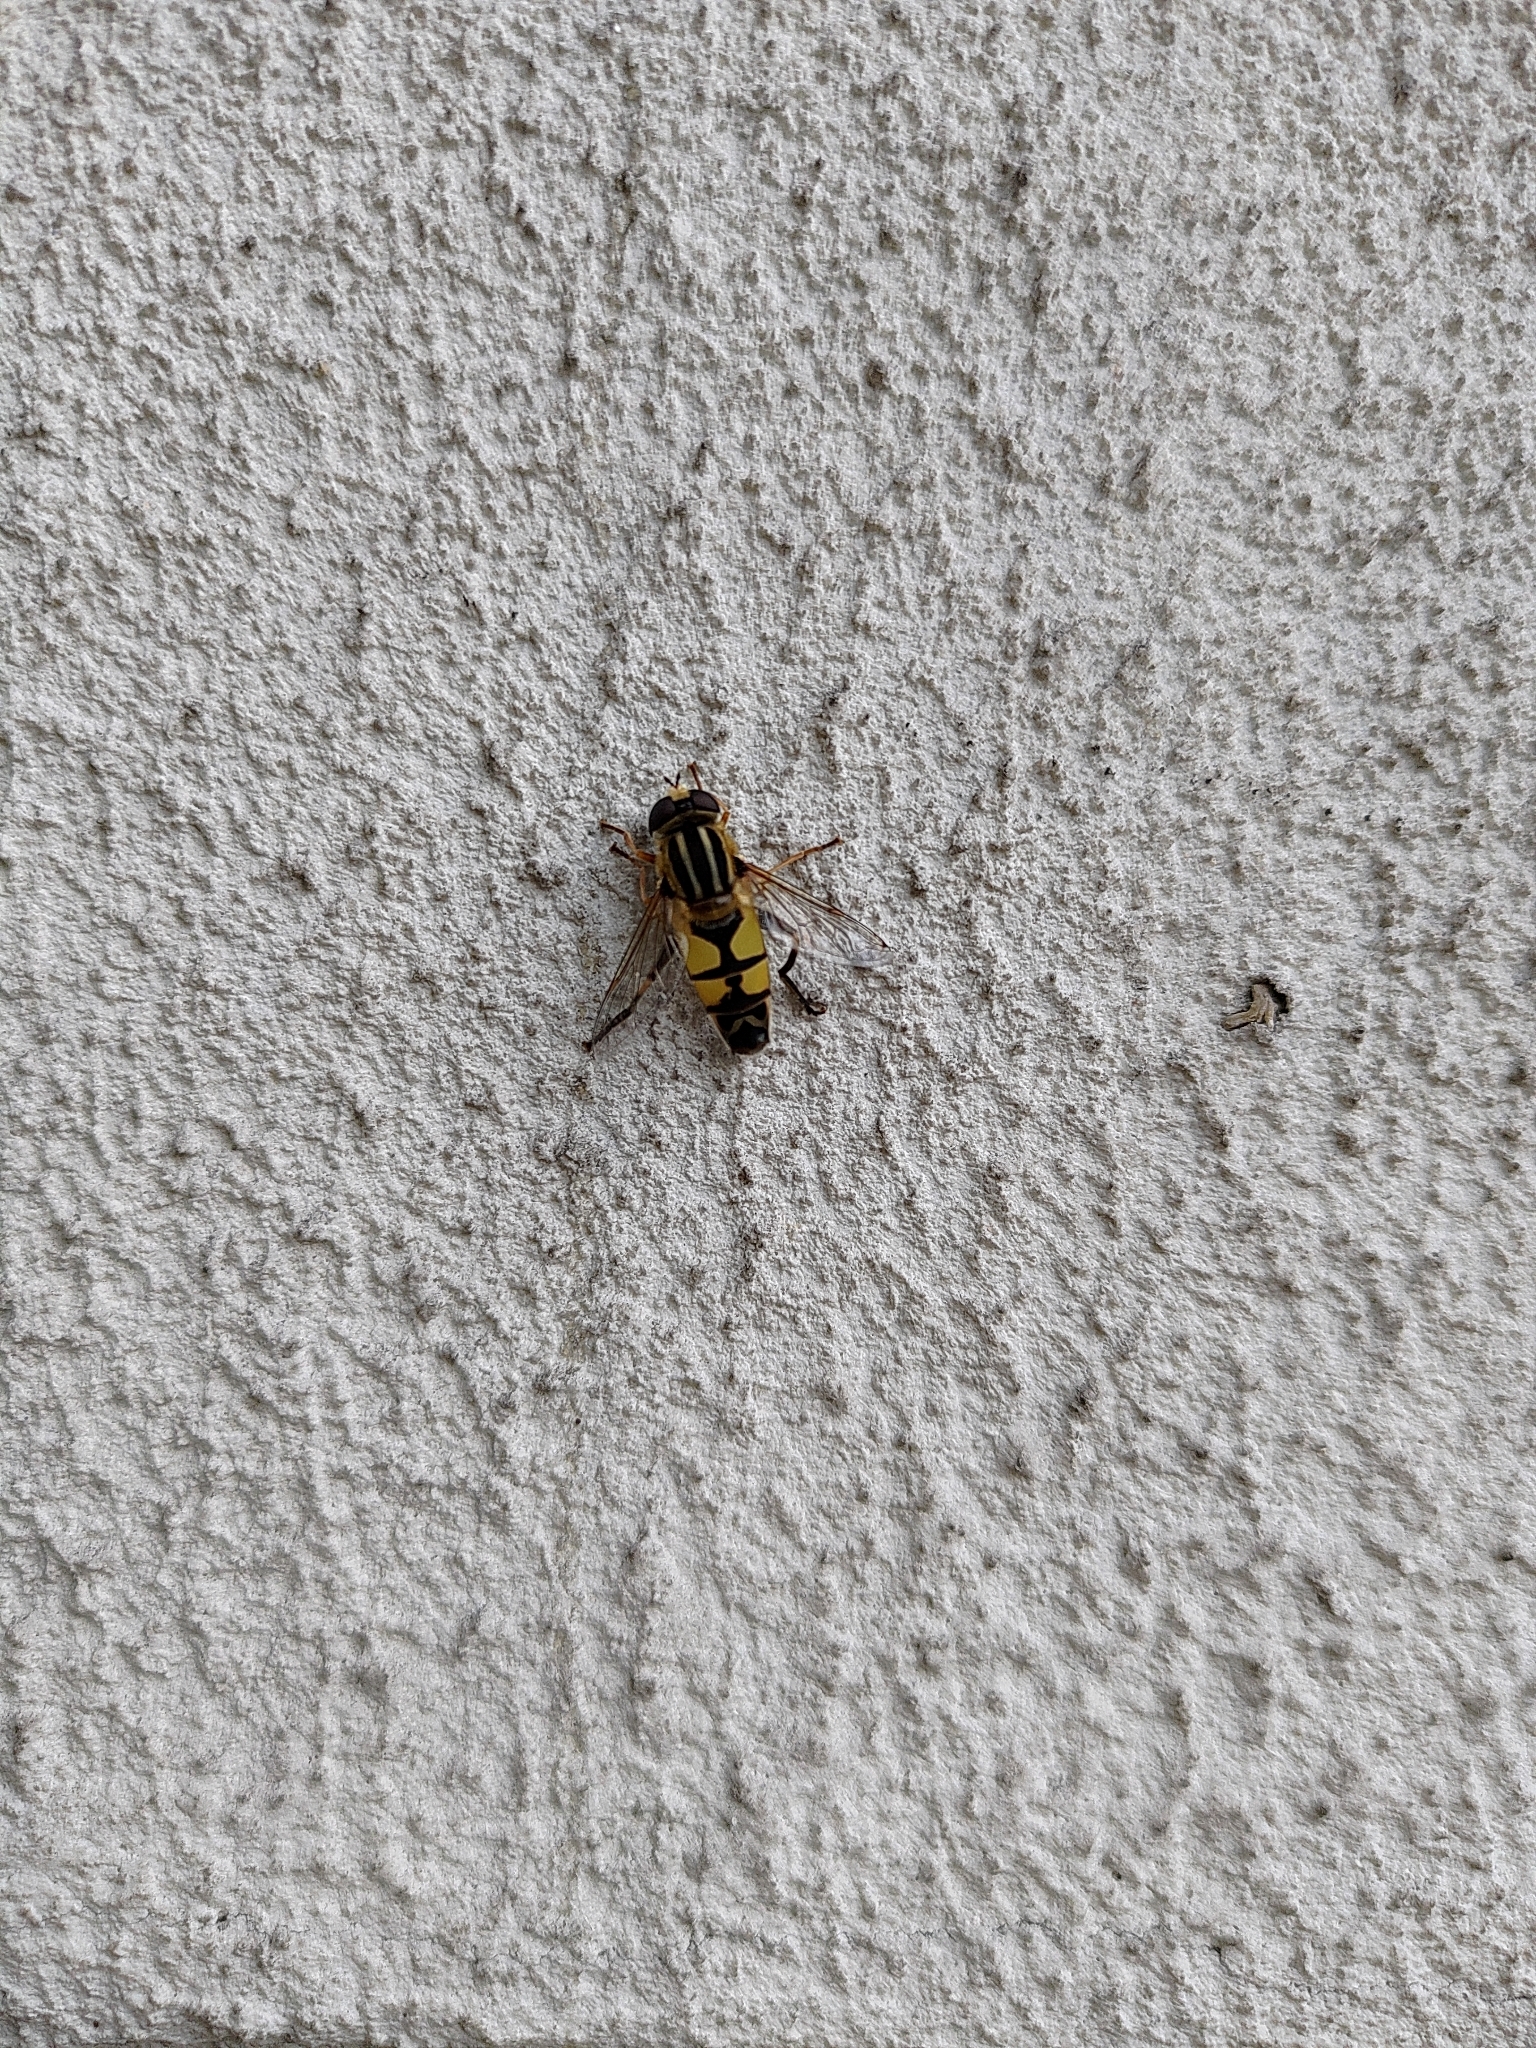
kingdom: Animalia
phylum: Arthropoda
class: Insecta
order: Diptera
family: Syrphidae
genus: Helophilus
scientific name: Helophilus trivittatus
